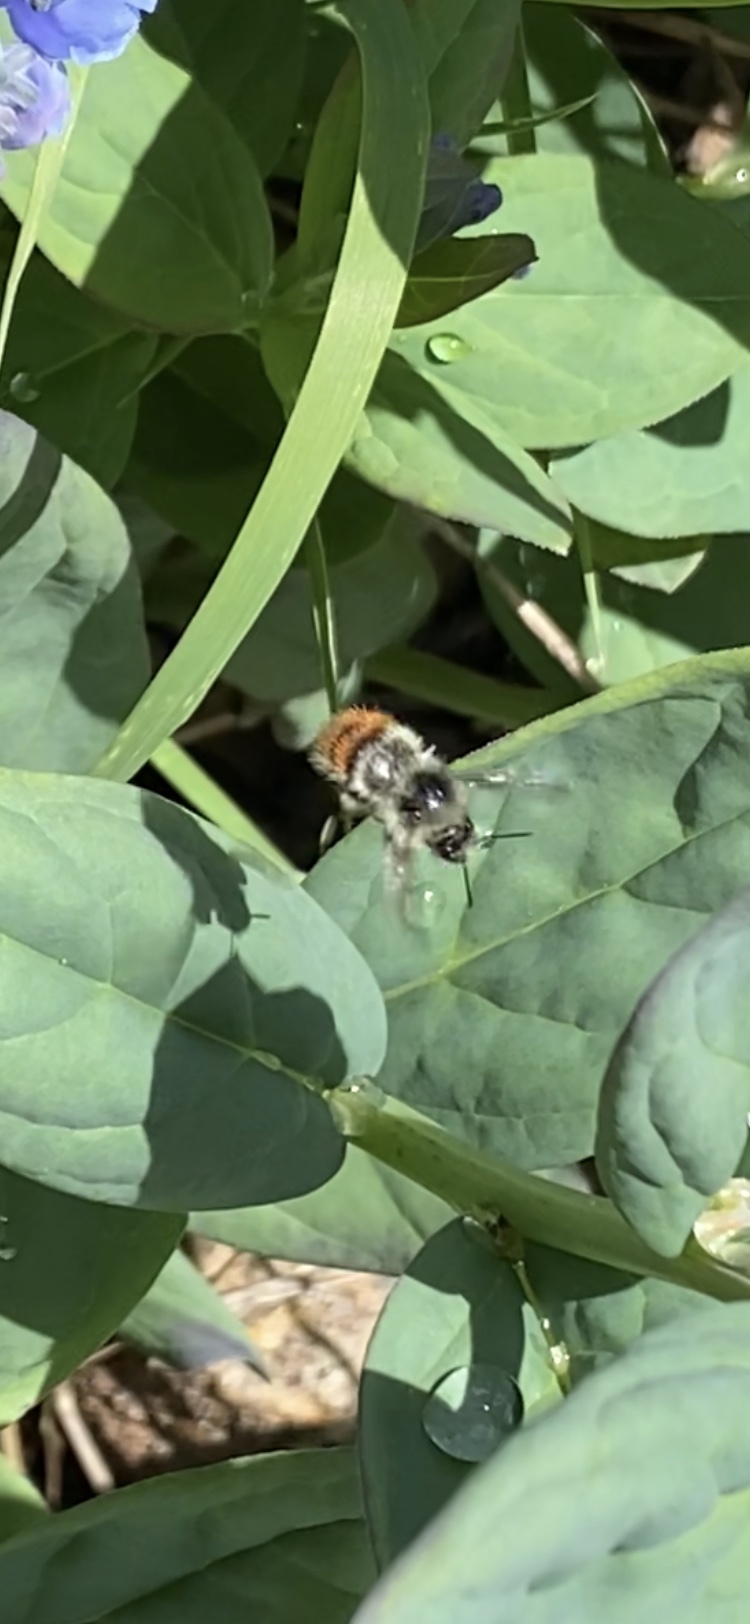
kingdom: Animalia
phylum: Arthropoda
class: Insecta
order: Hymenoptera
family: Apidae
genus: Bombus
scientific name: Bombus flavifrons
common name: Yellow head bumble bee
